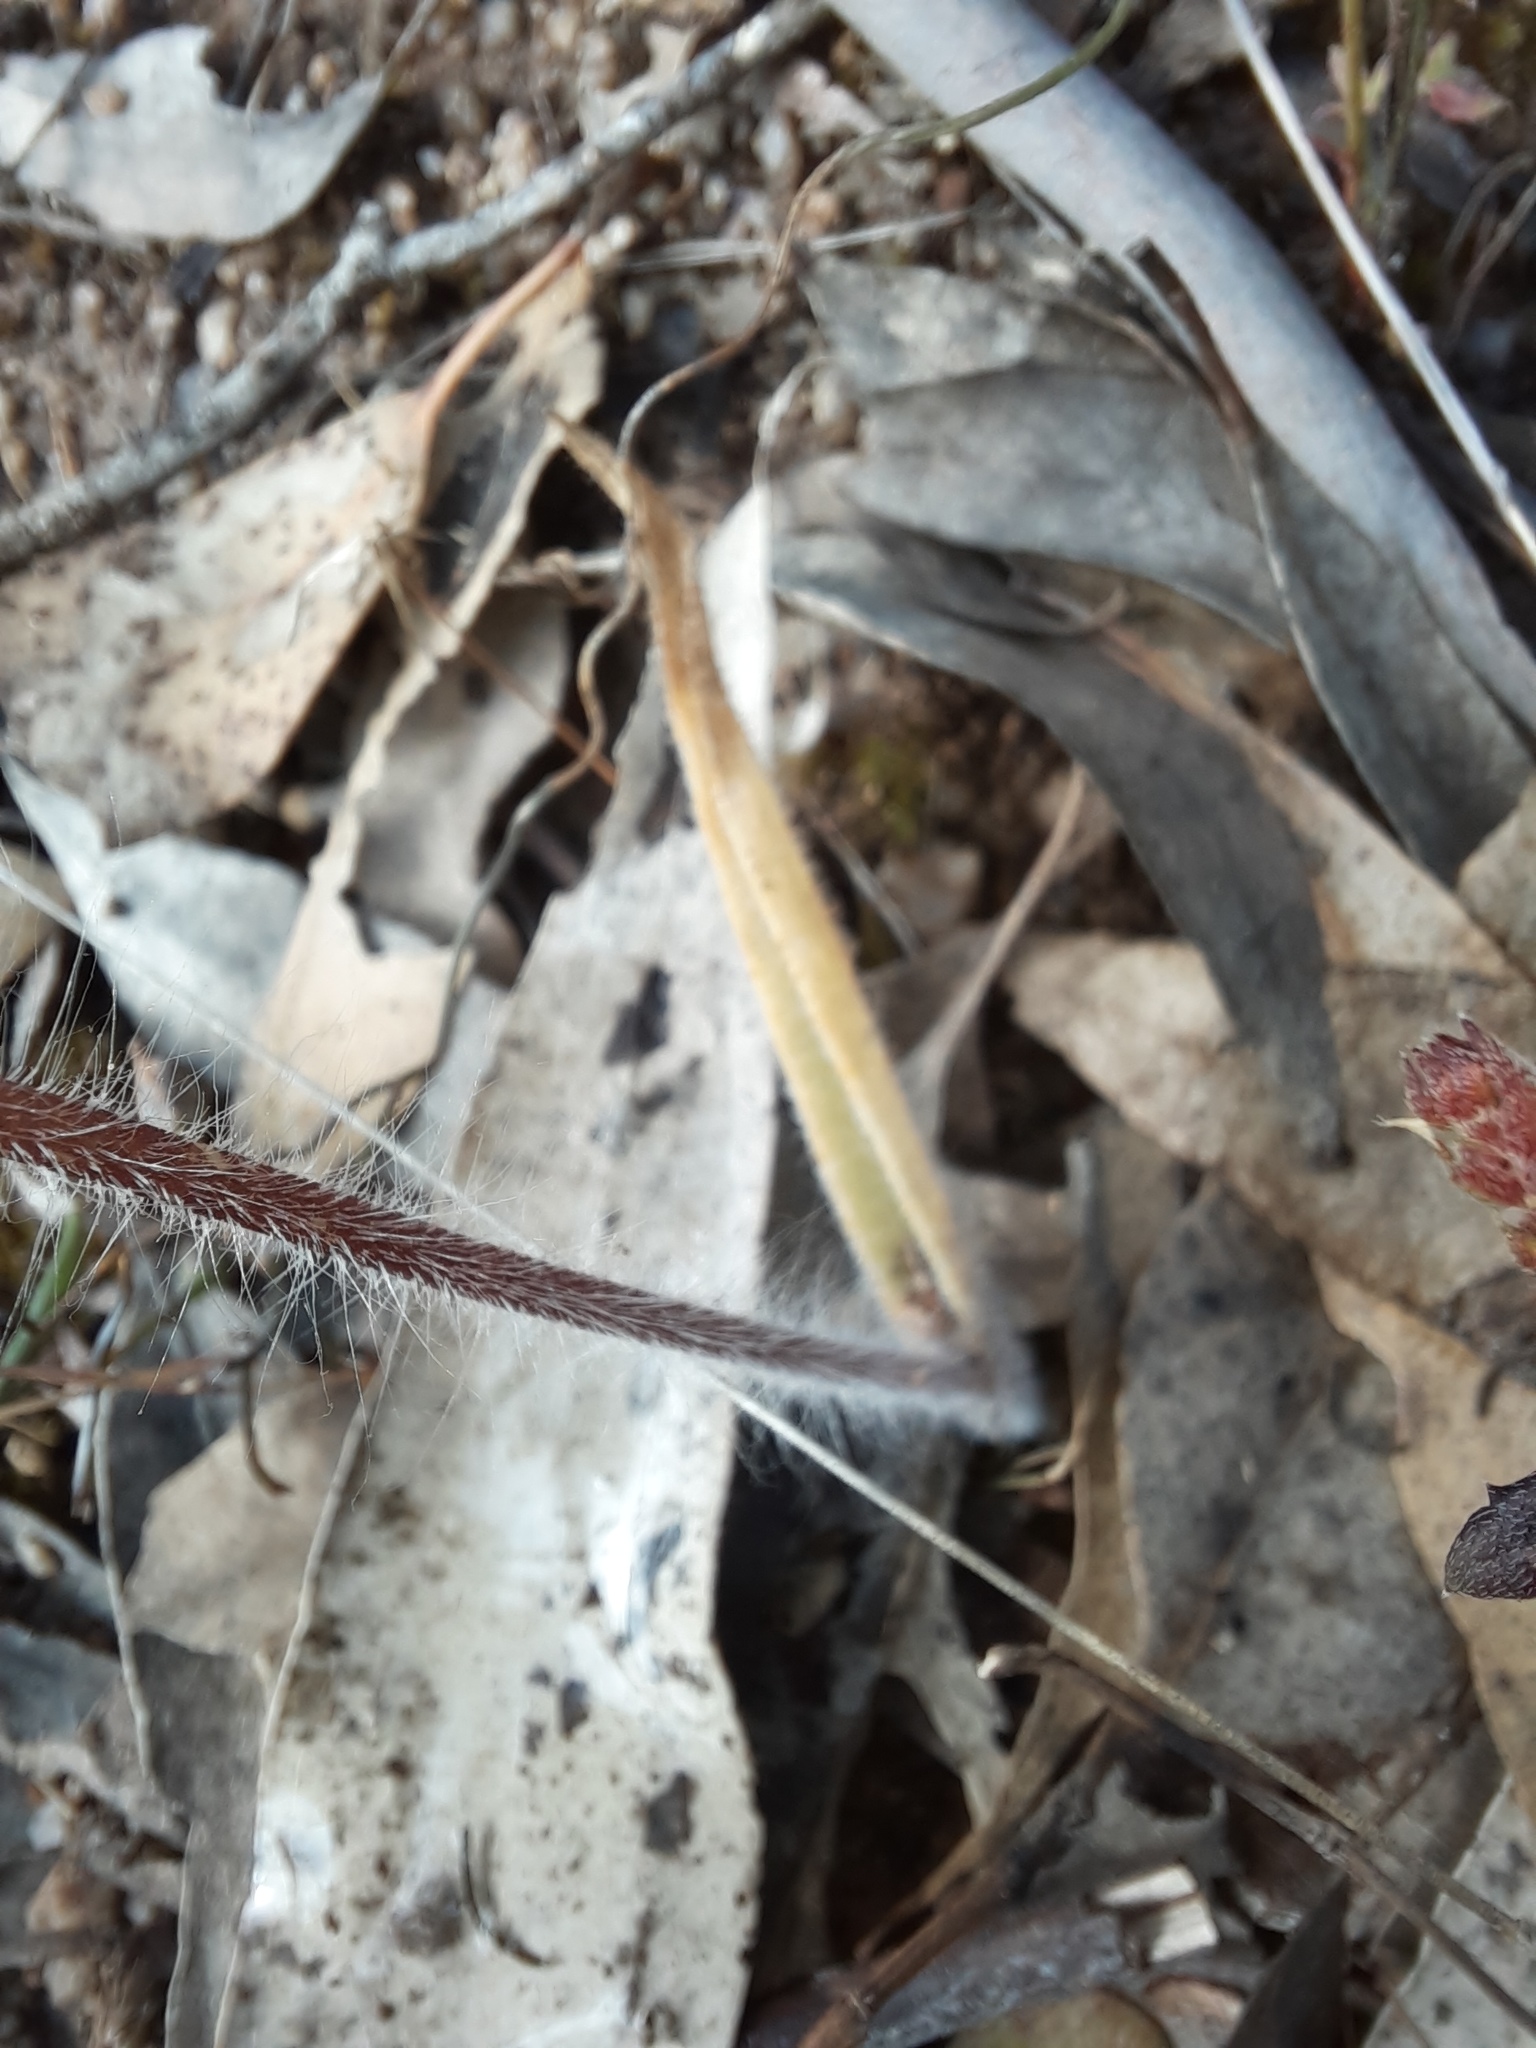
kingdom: Plantae
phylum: Tracheophyta
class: Liliopsida
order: Asparagales
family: Orchidaceae
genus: Caladenia
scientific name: Caladenia tentaculata
